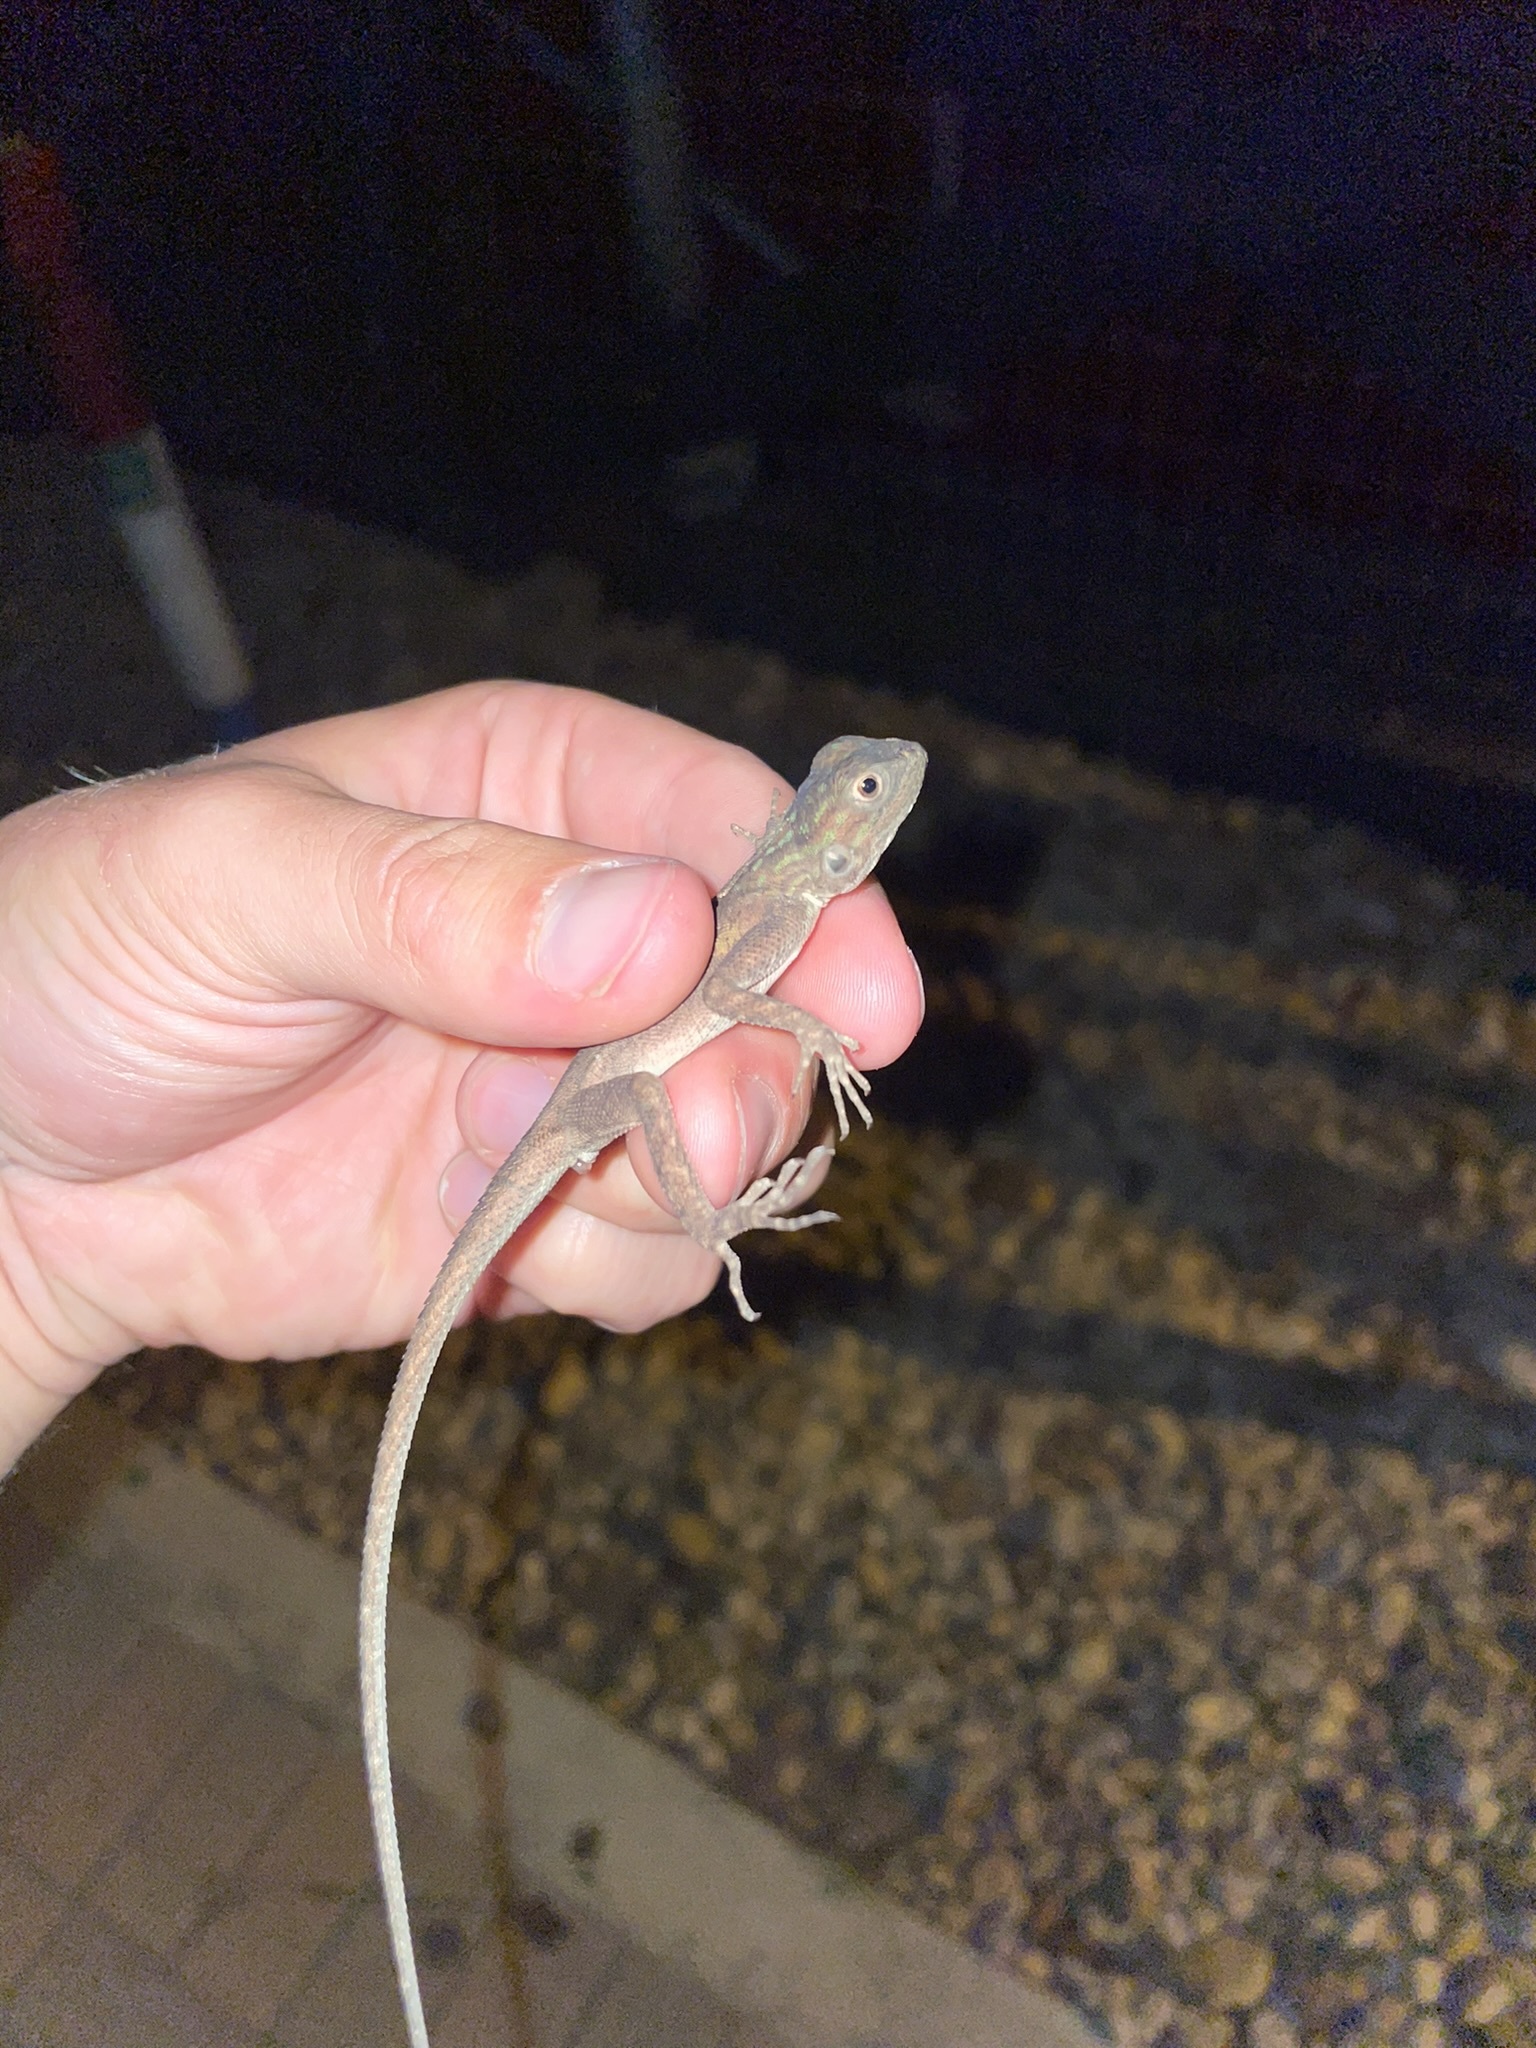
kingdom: Animalia
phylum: Chordata
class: Squamata
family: Agamidae
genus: Agama
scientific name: Agama picticauda
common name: Red-headed agama
